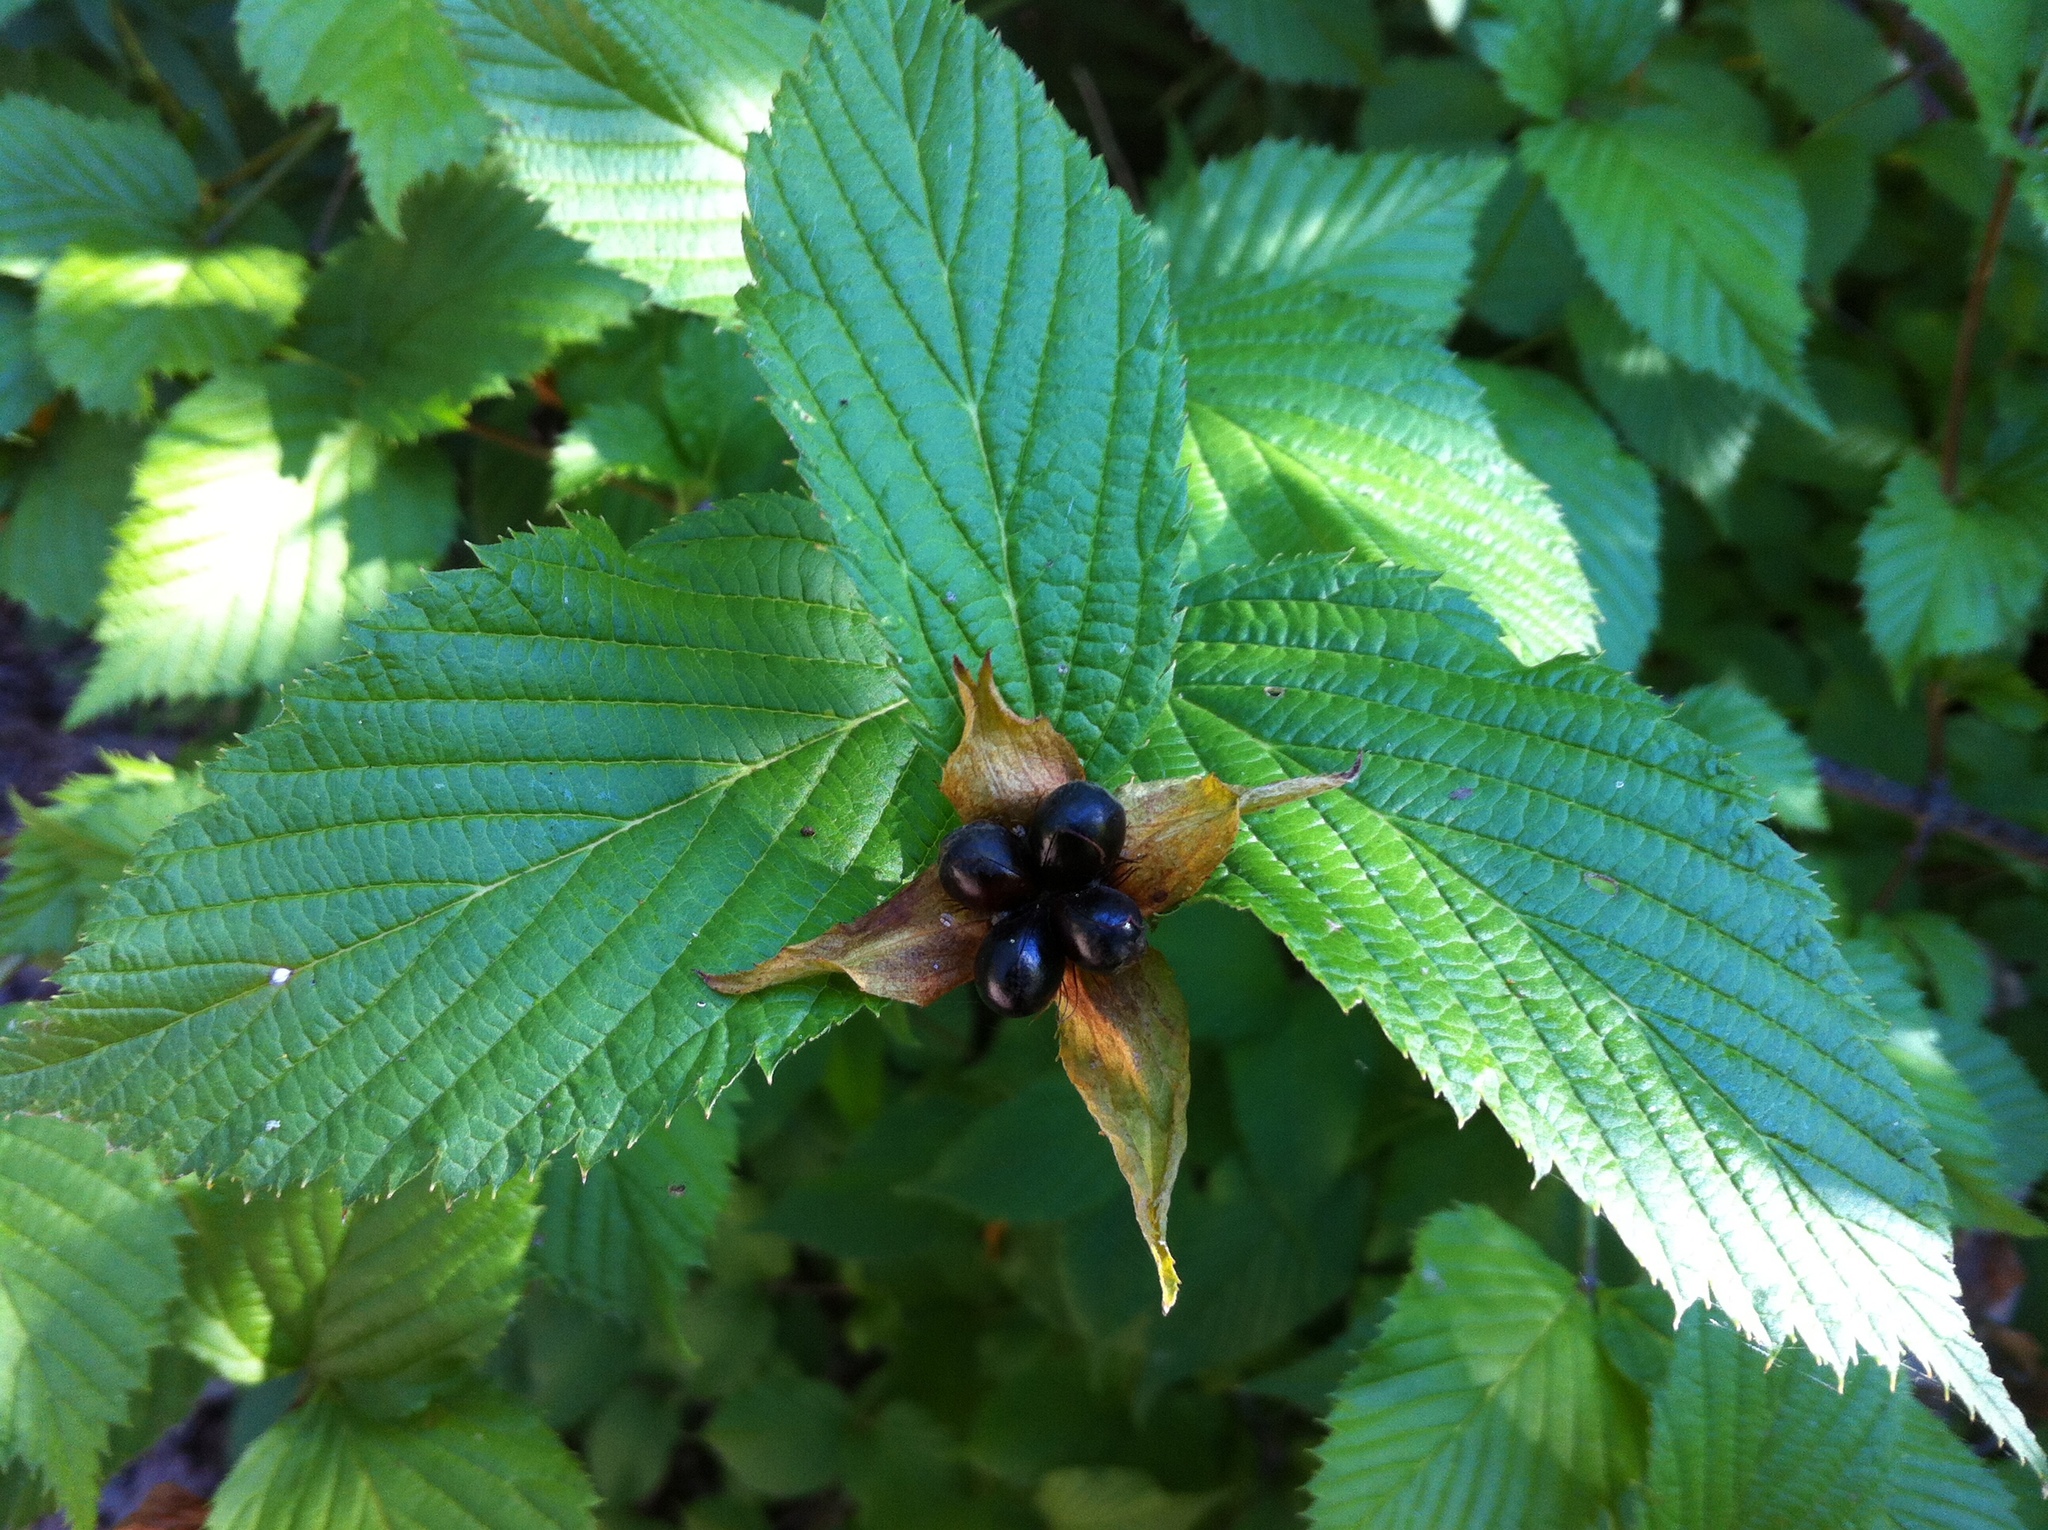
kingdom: Plantae
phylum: Tracheophyta
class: Magnoliopsida
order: Rosales
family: Rosaceae
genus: Rhodotypos
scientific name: Rhodotypos scandens
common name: Jetbead
